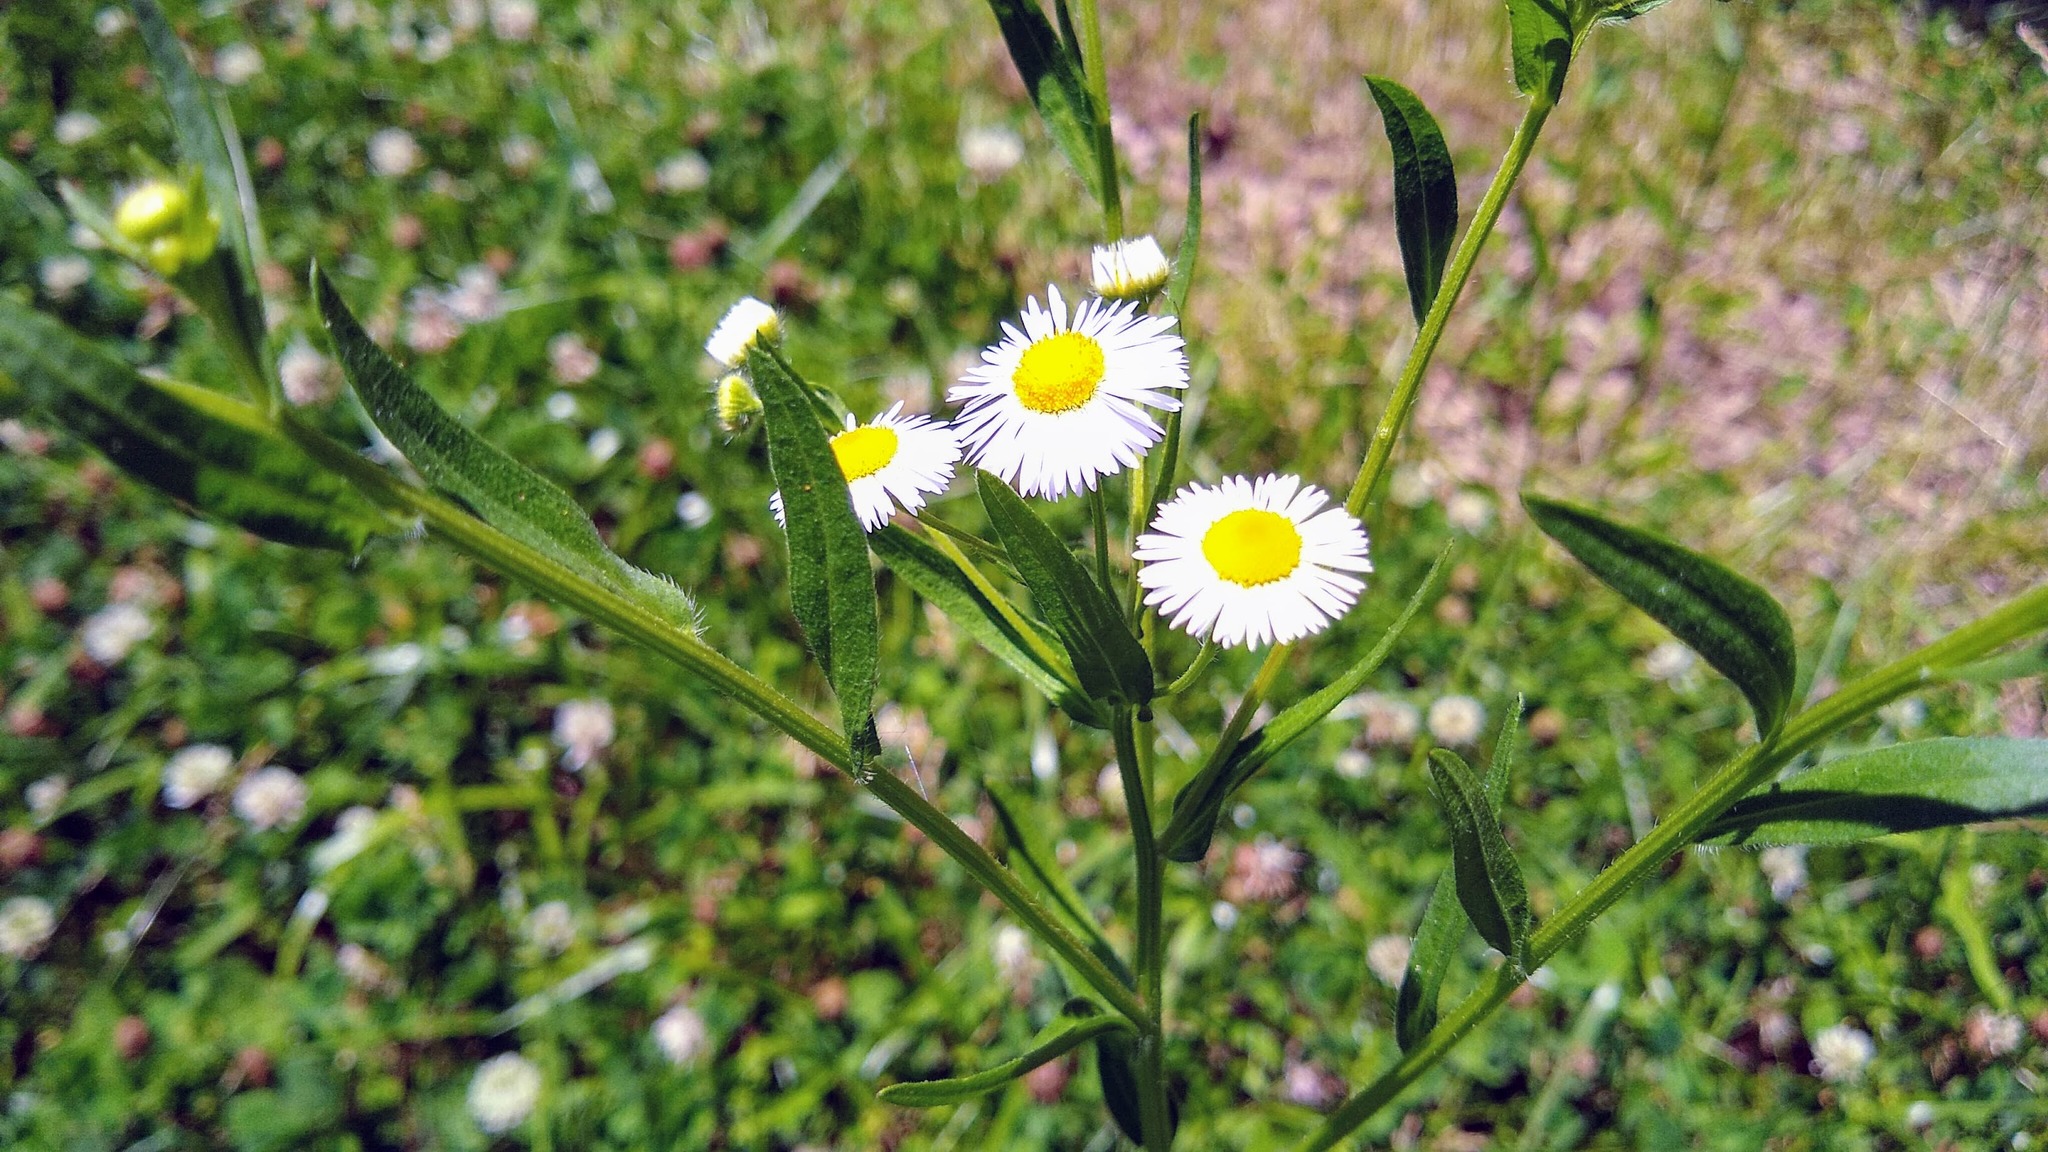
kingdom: Plantae
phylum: Tracheophyta
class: Magnoliopsida
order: Asterales
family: Asteraceae
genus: Erigeron
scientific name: Erigeron strigosus
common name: Common eastern fleabane
